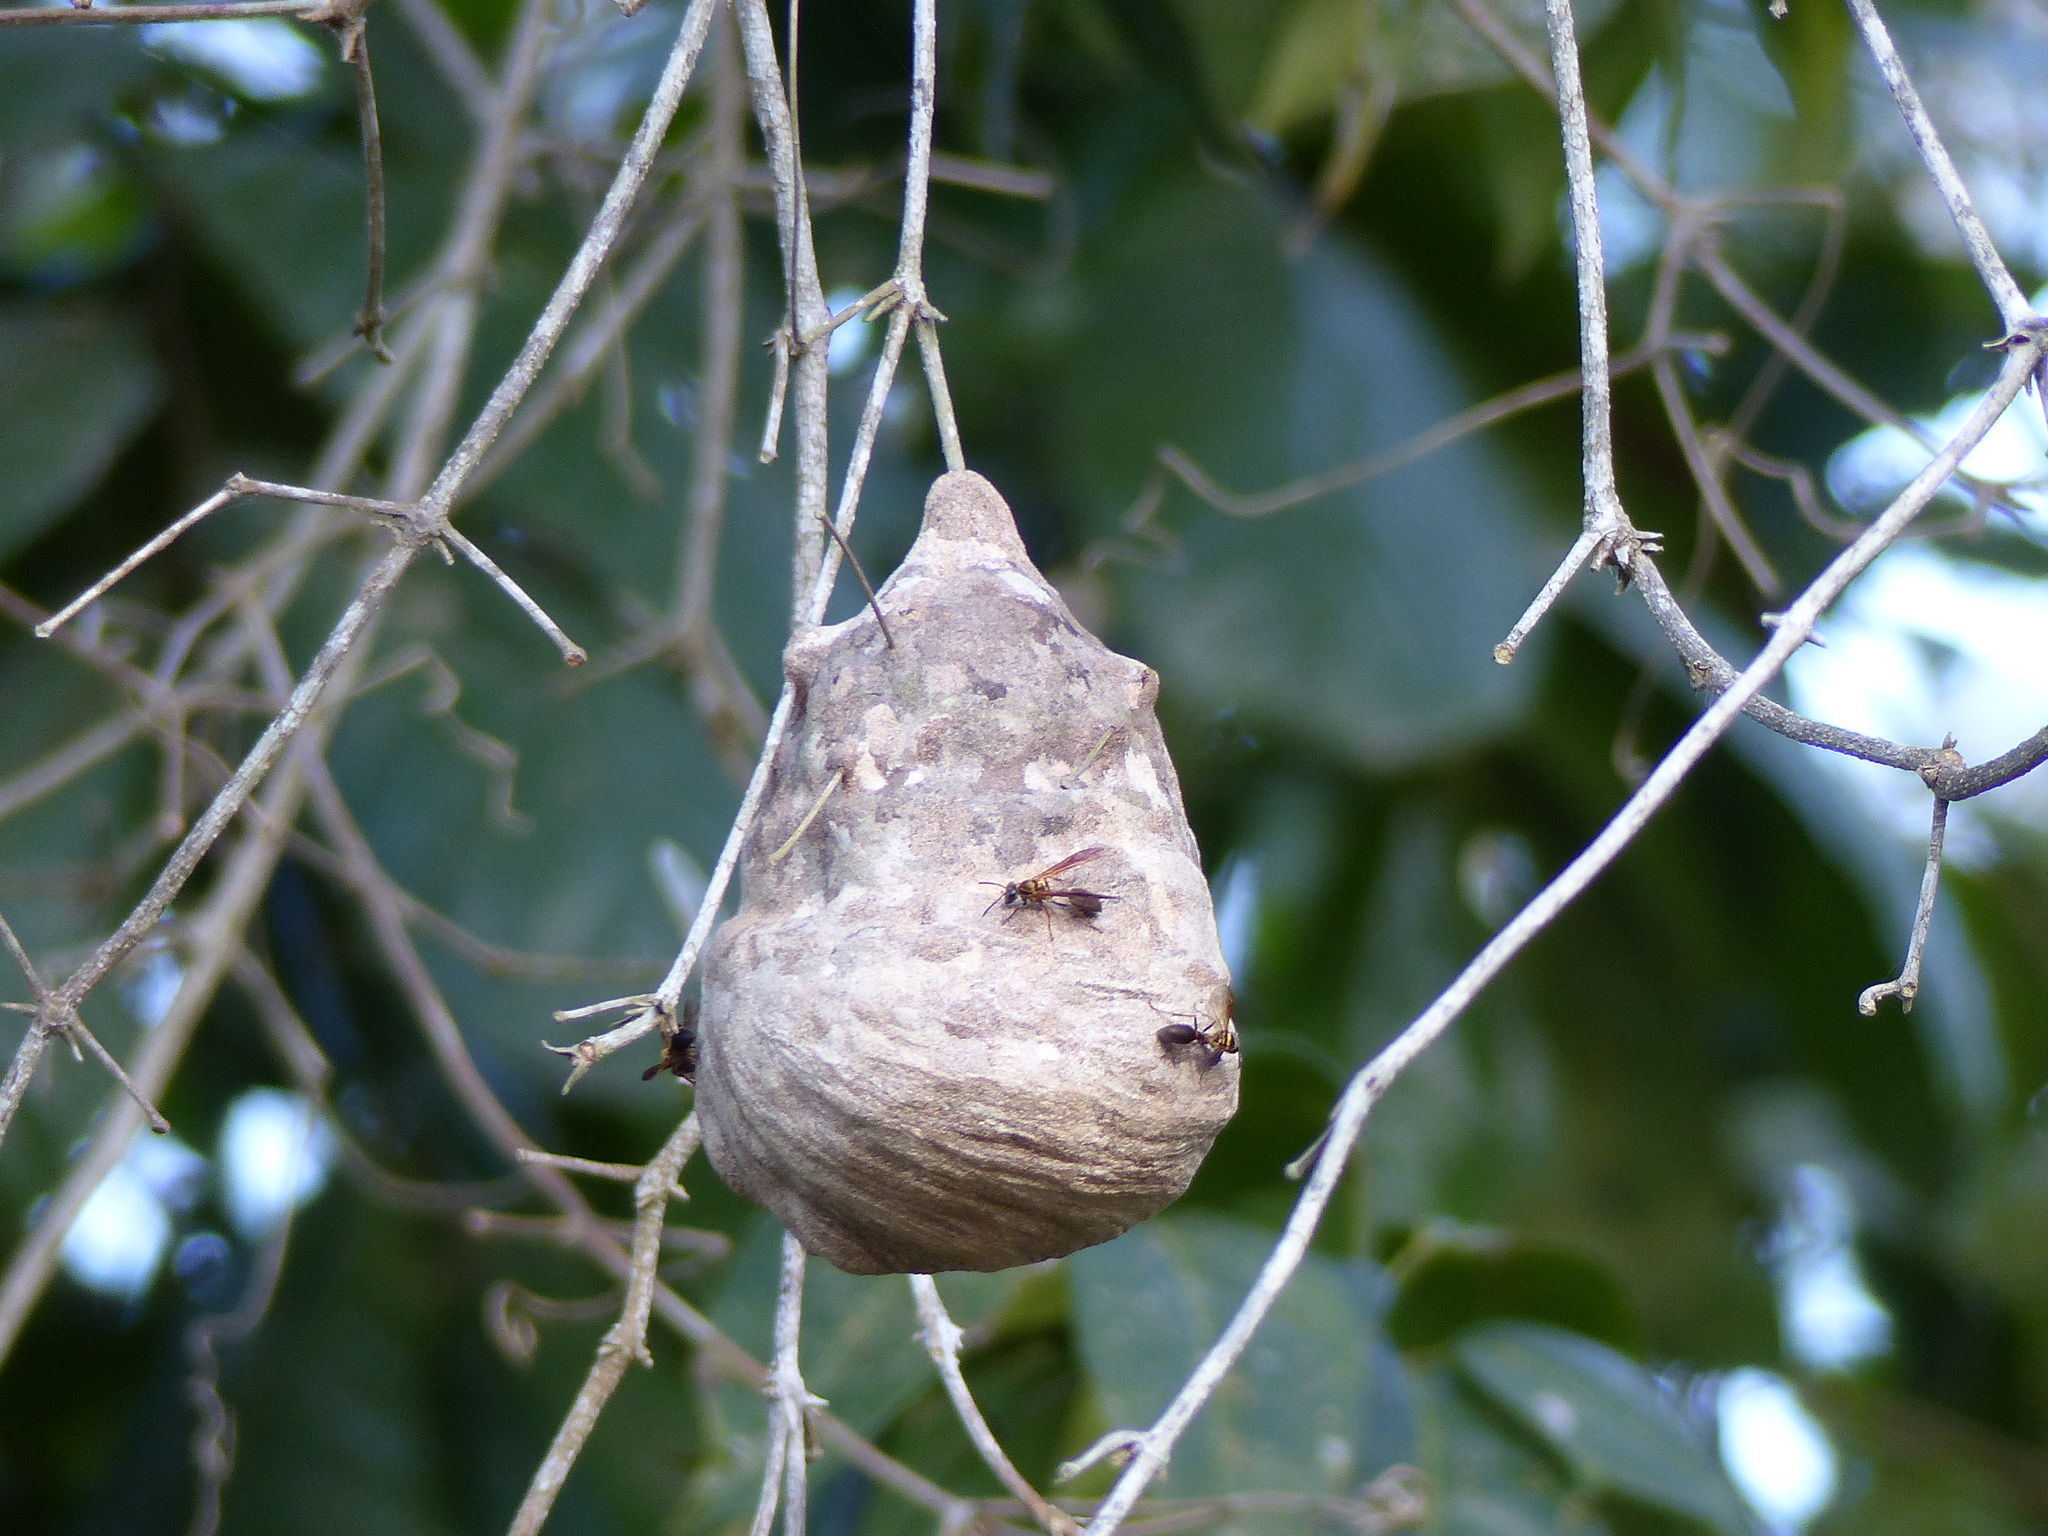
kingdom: Animalia
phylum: Arthropoda
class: Insecta
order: Hymenoptera
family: Eumenidae
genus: Polybia
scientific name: Polybia chrysothorax
